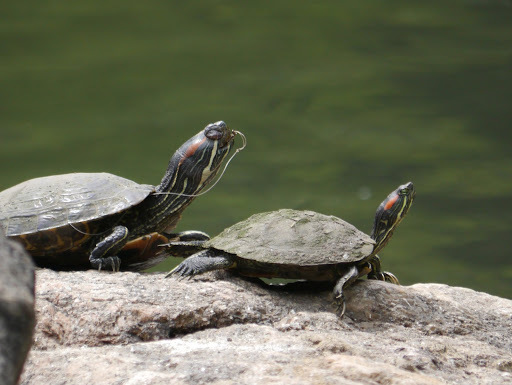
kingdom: Animalia
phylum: Chordata
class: Testudines
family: Emydidae
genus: Trachemys
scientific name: Trachemys scripta
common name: Slider
